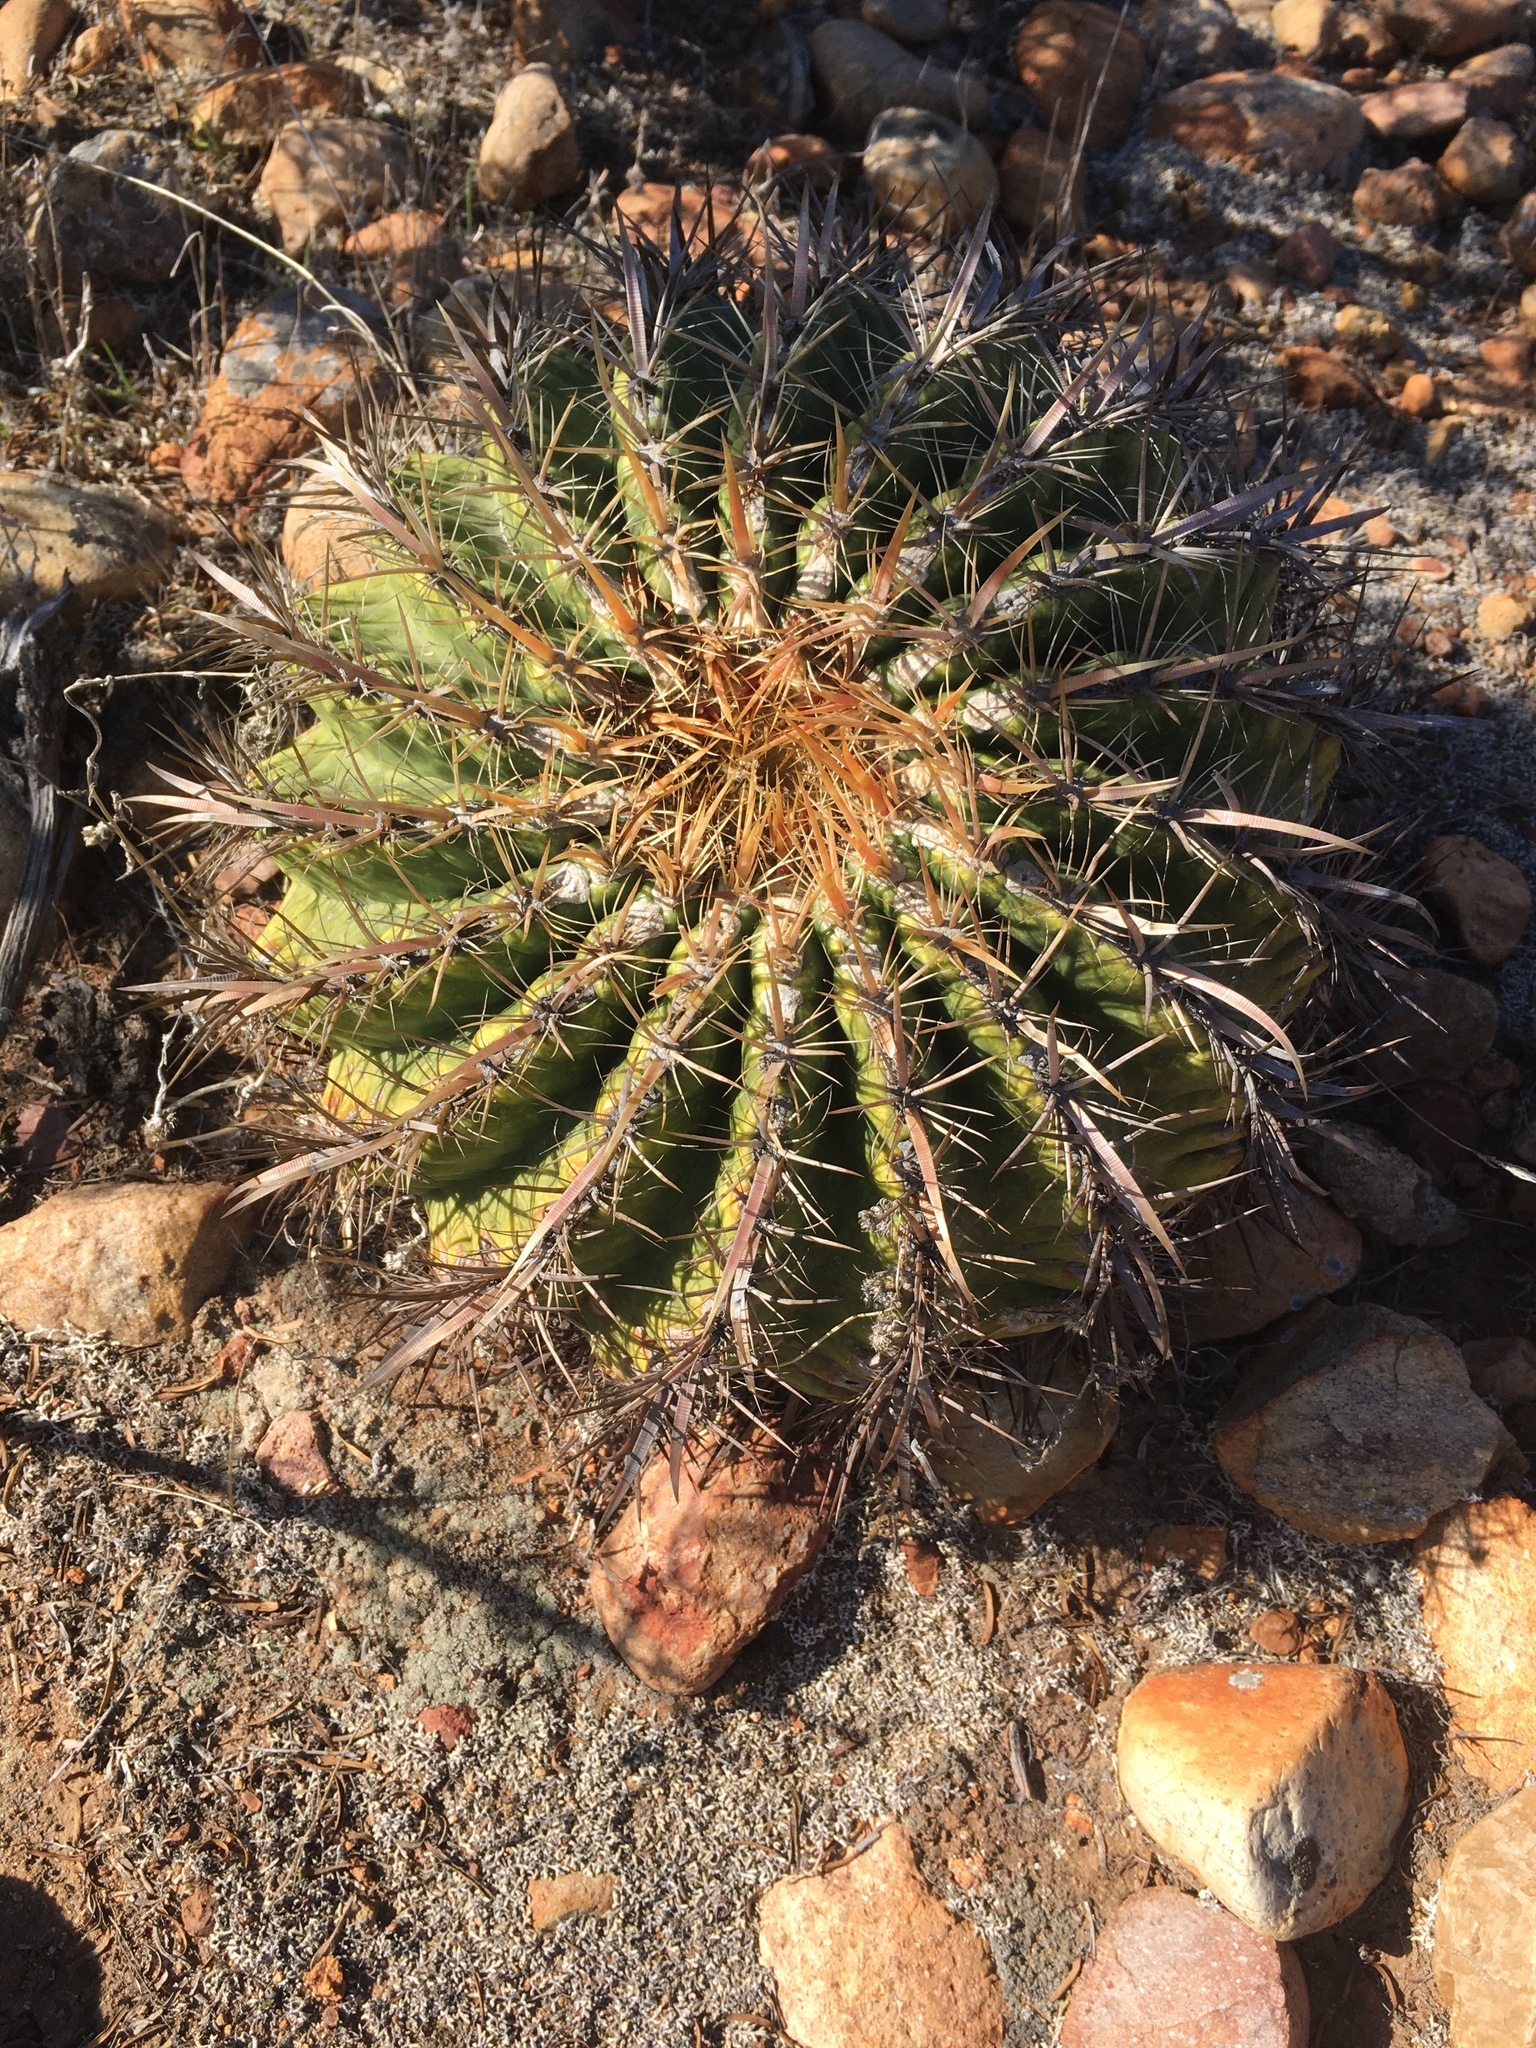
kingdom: Plantae
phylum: Tracheophyta
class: Magnoliopsida
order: Caryophyllales
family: Cactaceae
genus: Ferocactus
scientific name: Ferocactus viridescens
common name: San diego barrel cactus
